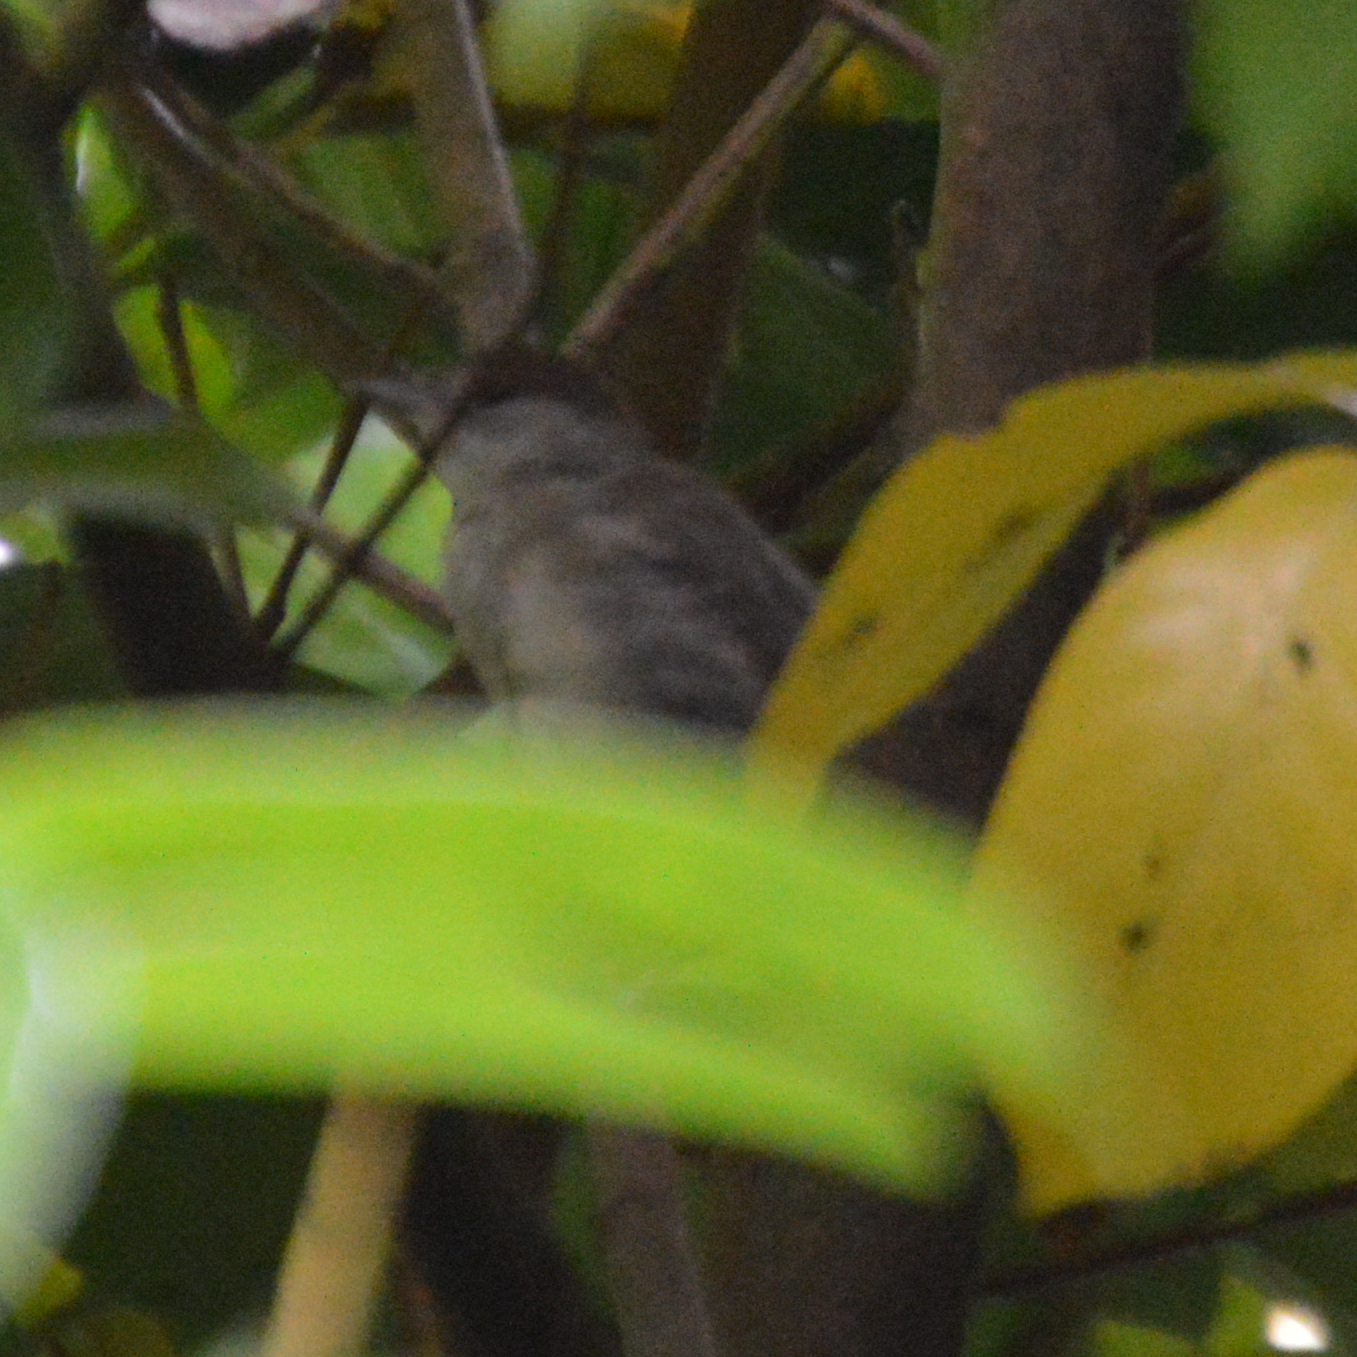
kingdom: Animalia
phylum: Chordata
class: Aves
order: Passeriformes
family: Sylviidae
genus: Sylvia
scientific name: Sylvia atricapilla
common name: Eurasian blackcap
